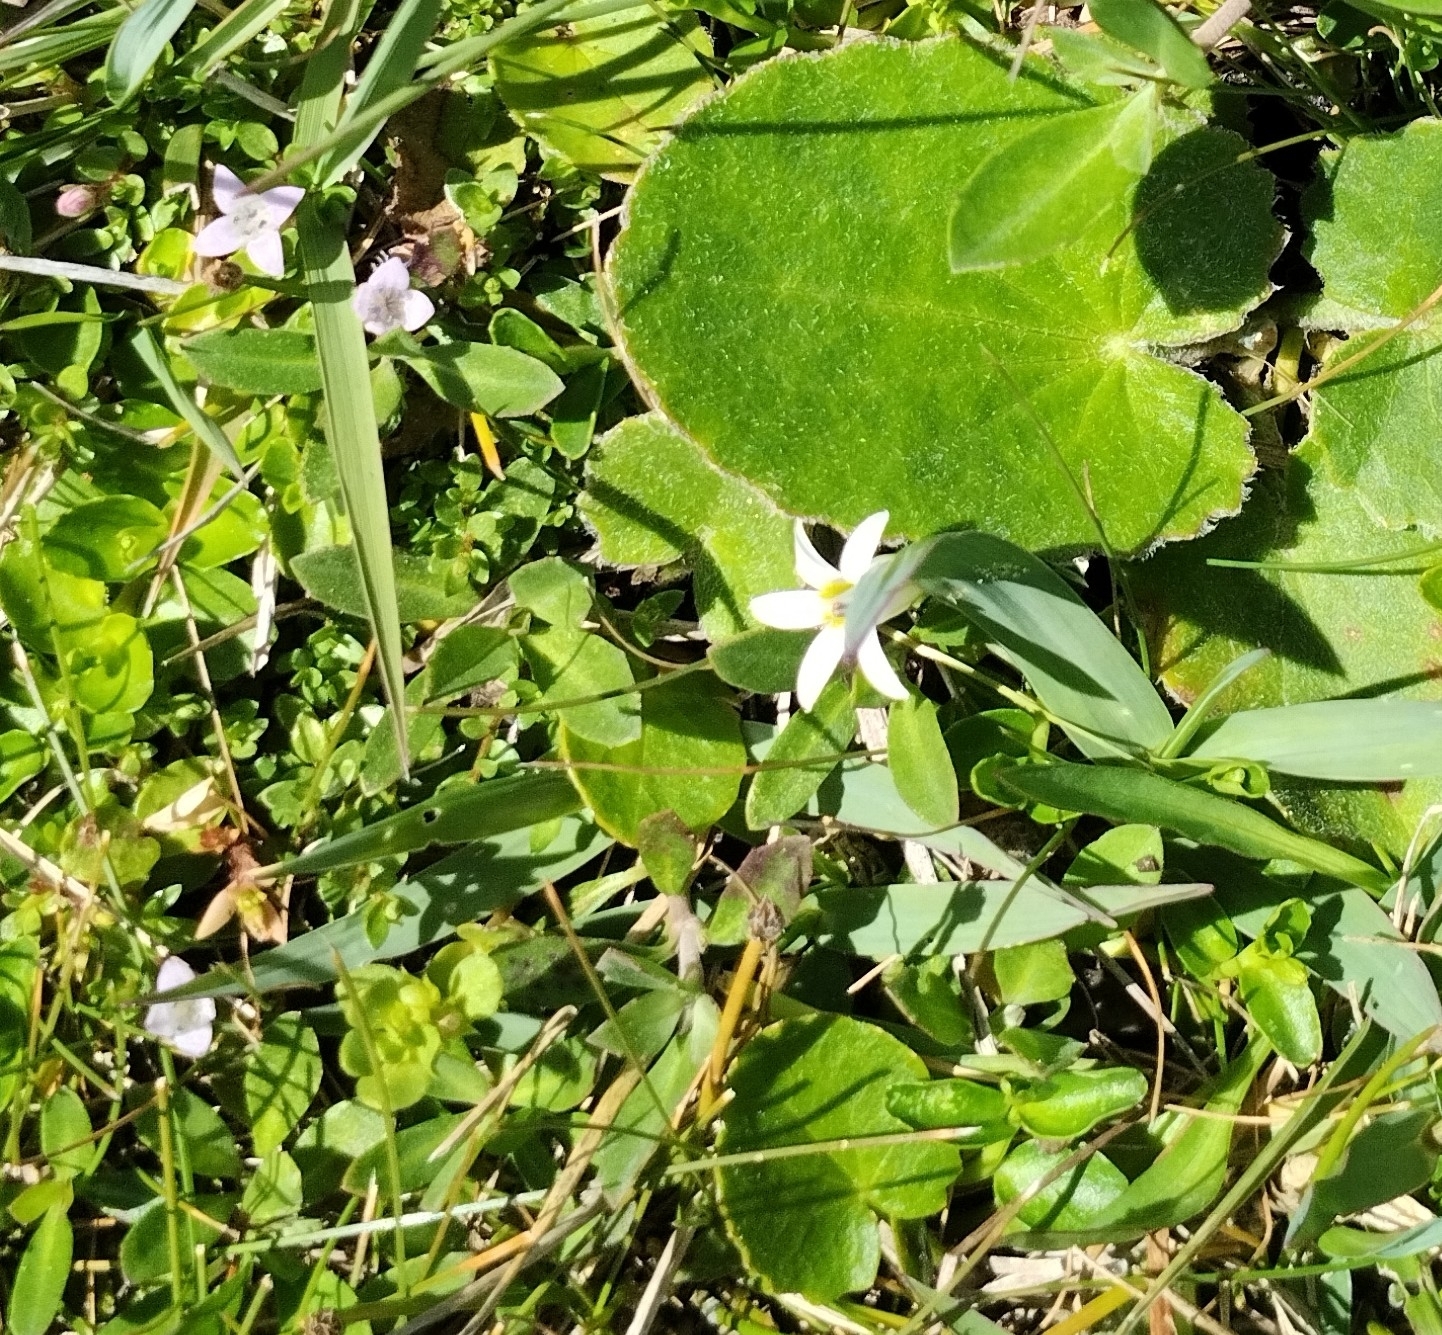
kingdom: Plantae
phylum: Tracheophyta
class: Magnoliopsida
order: Asterales
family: Campanulaceae
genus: Lobelia
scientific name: Lobelia hederacea
